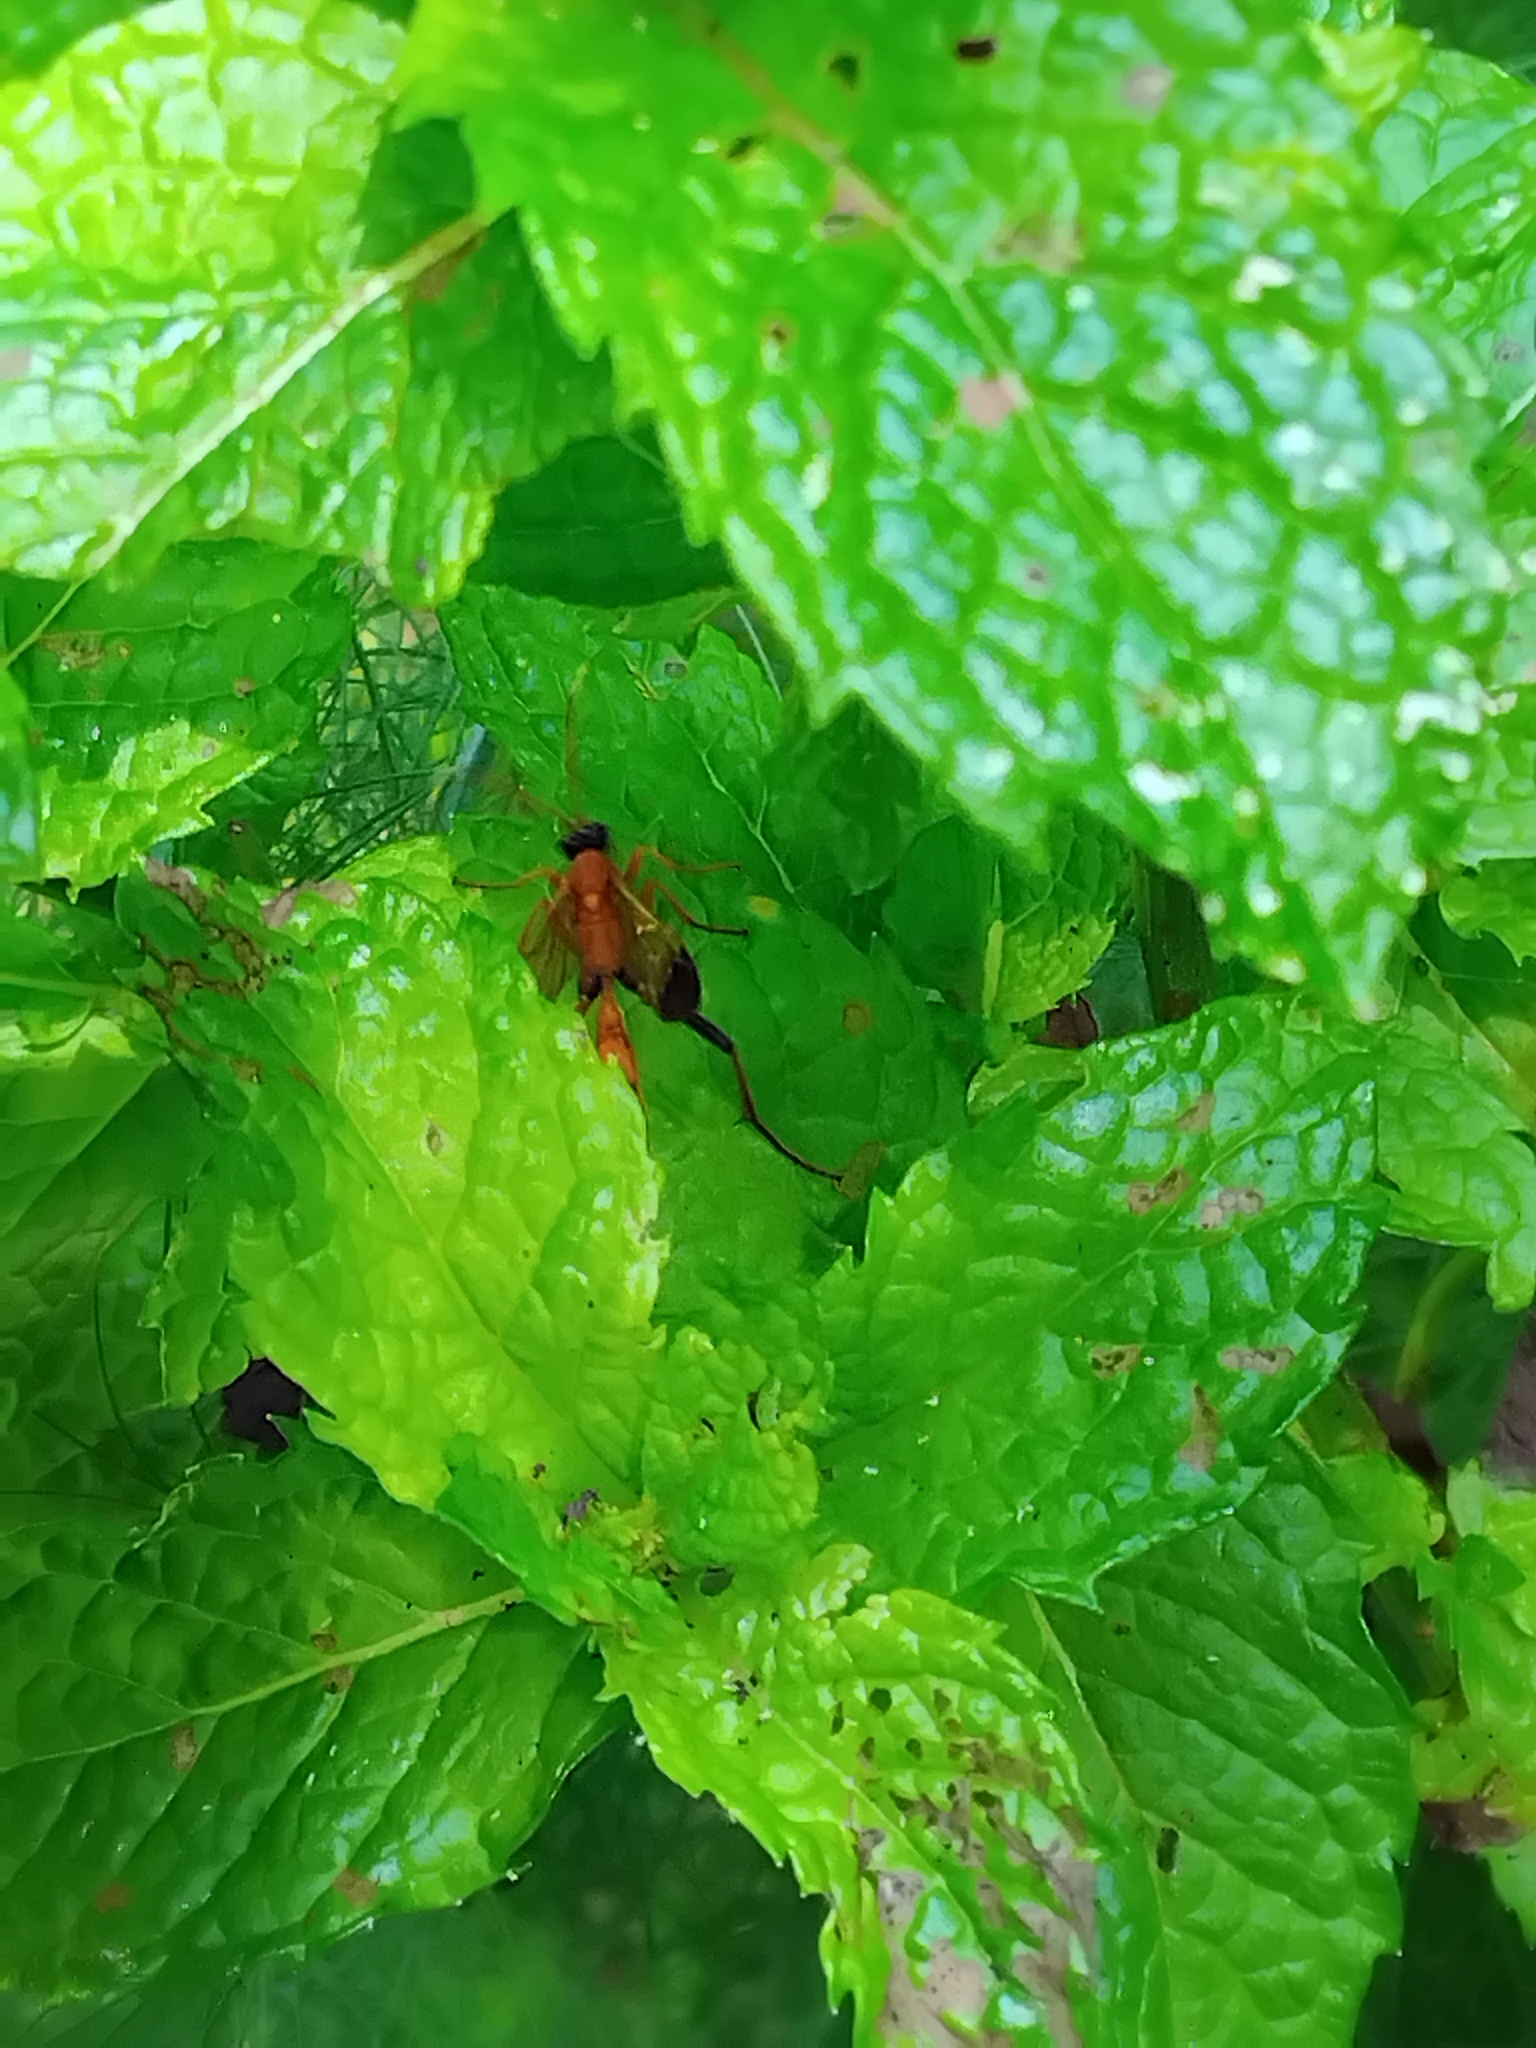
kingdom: Animalia
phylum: Arthropoda
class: Insecta
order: Hymenoptera
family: Ichneumonidae
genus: Ctenochares
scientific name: Ctenochares bicolorus
